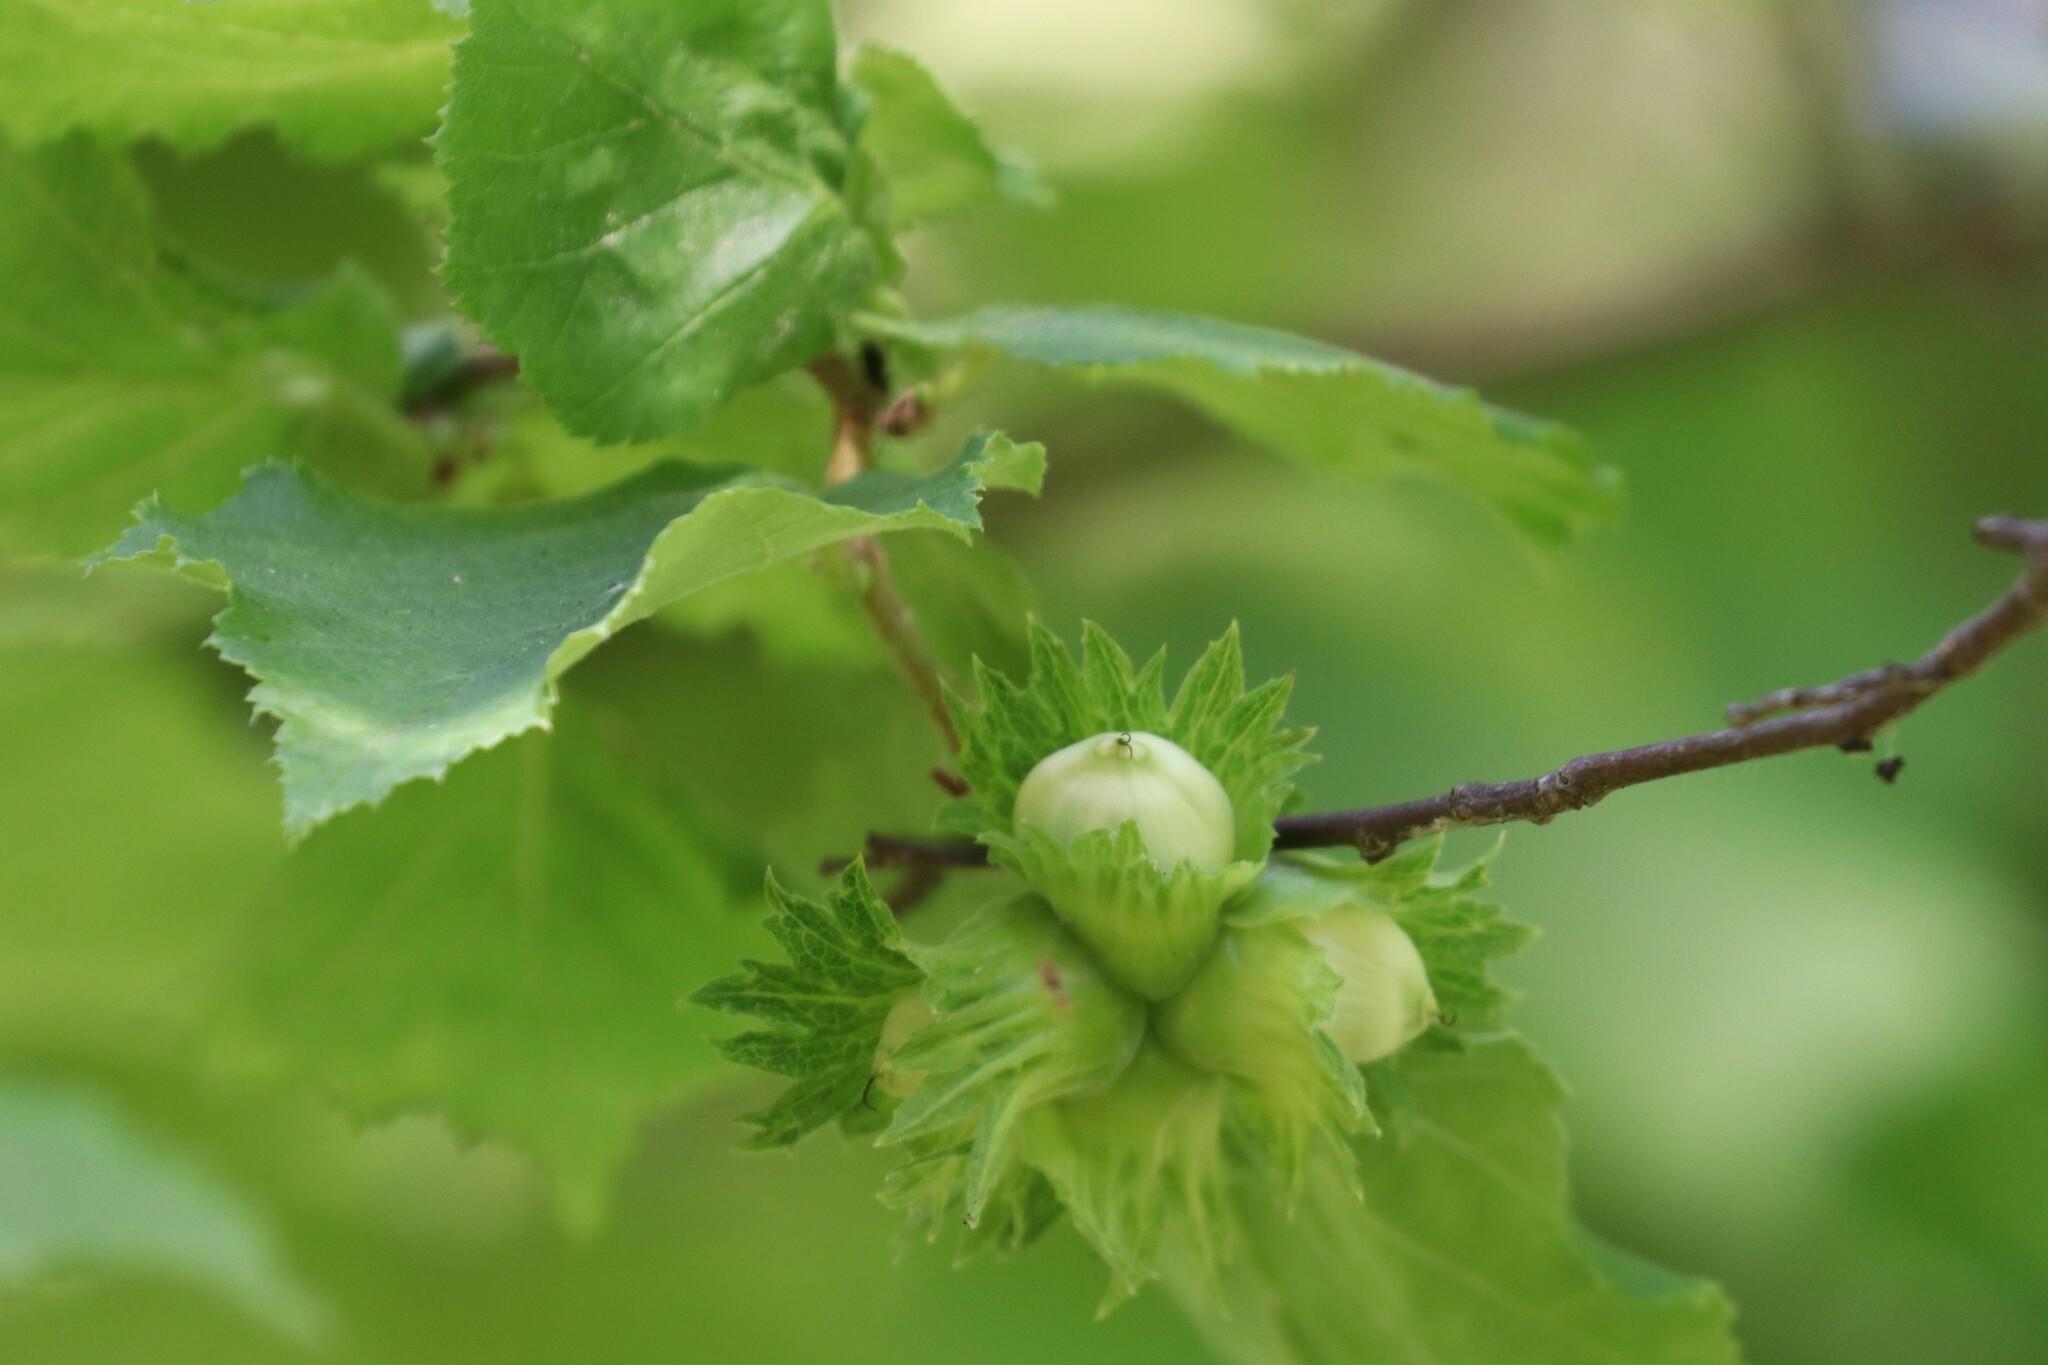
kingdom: Plantae
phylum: Tracheophyta
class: Magnoliopsida
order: Fagales
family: Betulaceae
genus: Corylus
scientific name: Corylus avellana
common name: European hazel
